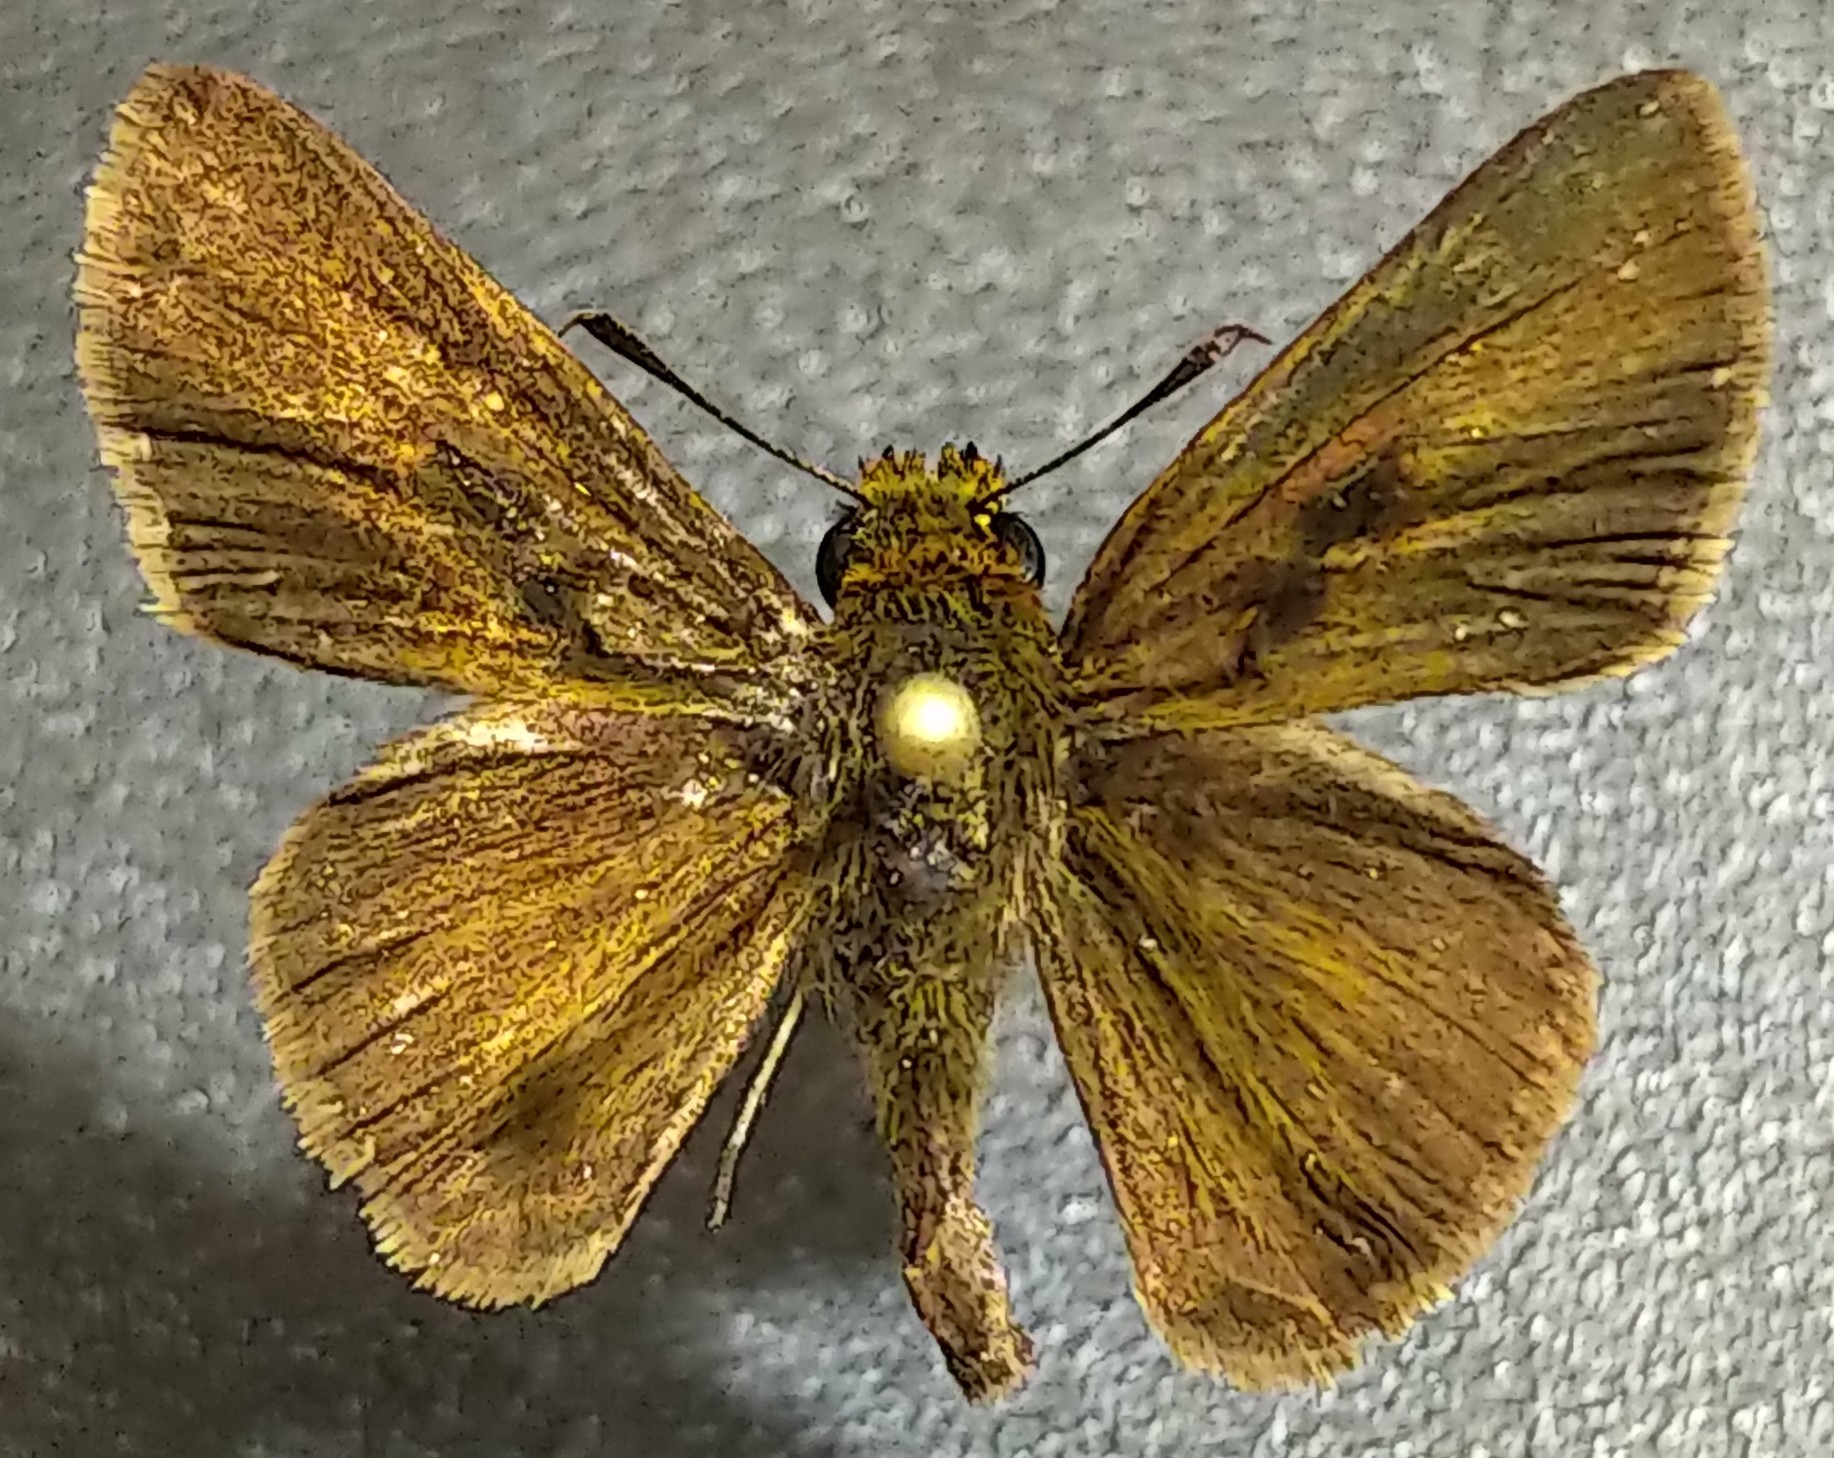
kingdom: Animalia
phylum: Arthropoda
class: Insecta
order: Lepidoptera
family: Hesperiidae
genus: Euphyes
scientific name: Euphyes vestris
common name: Dun skipper
